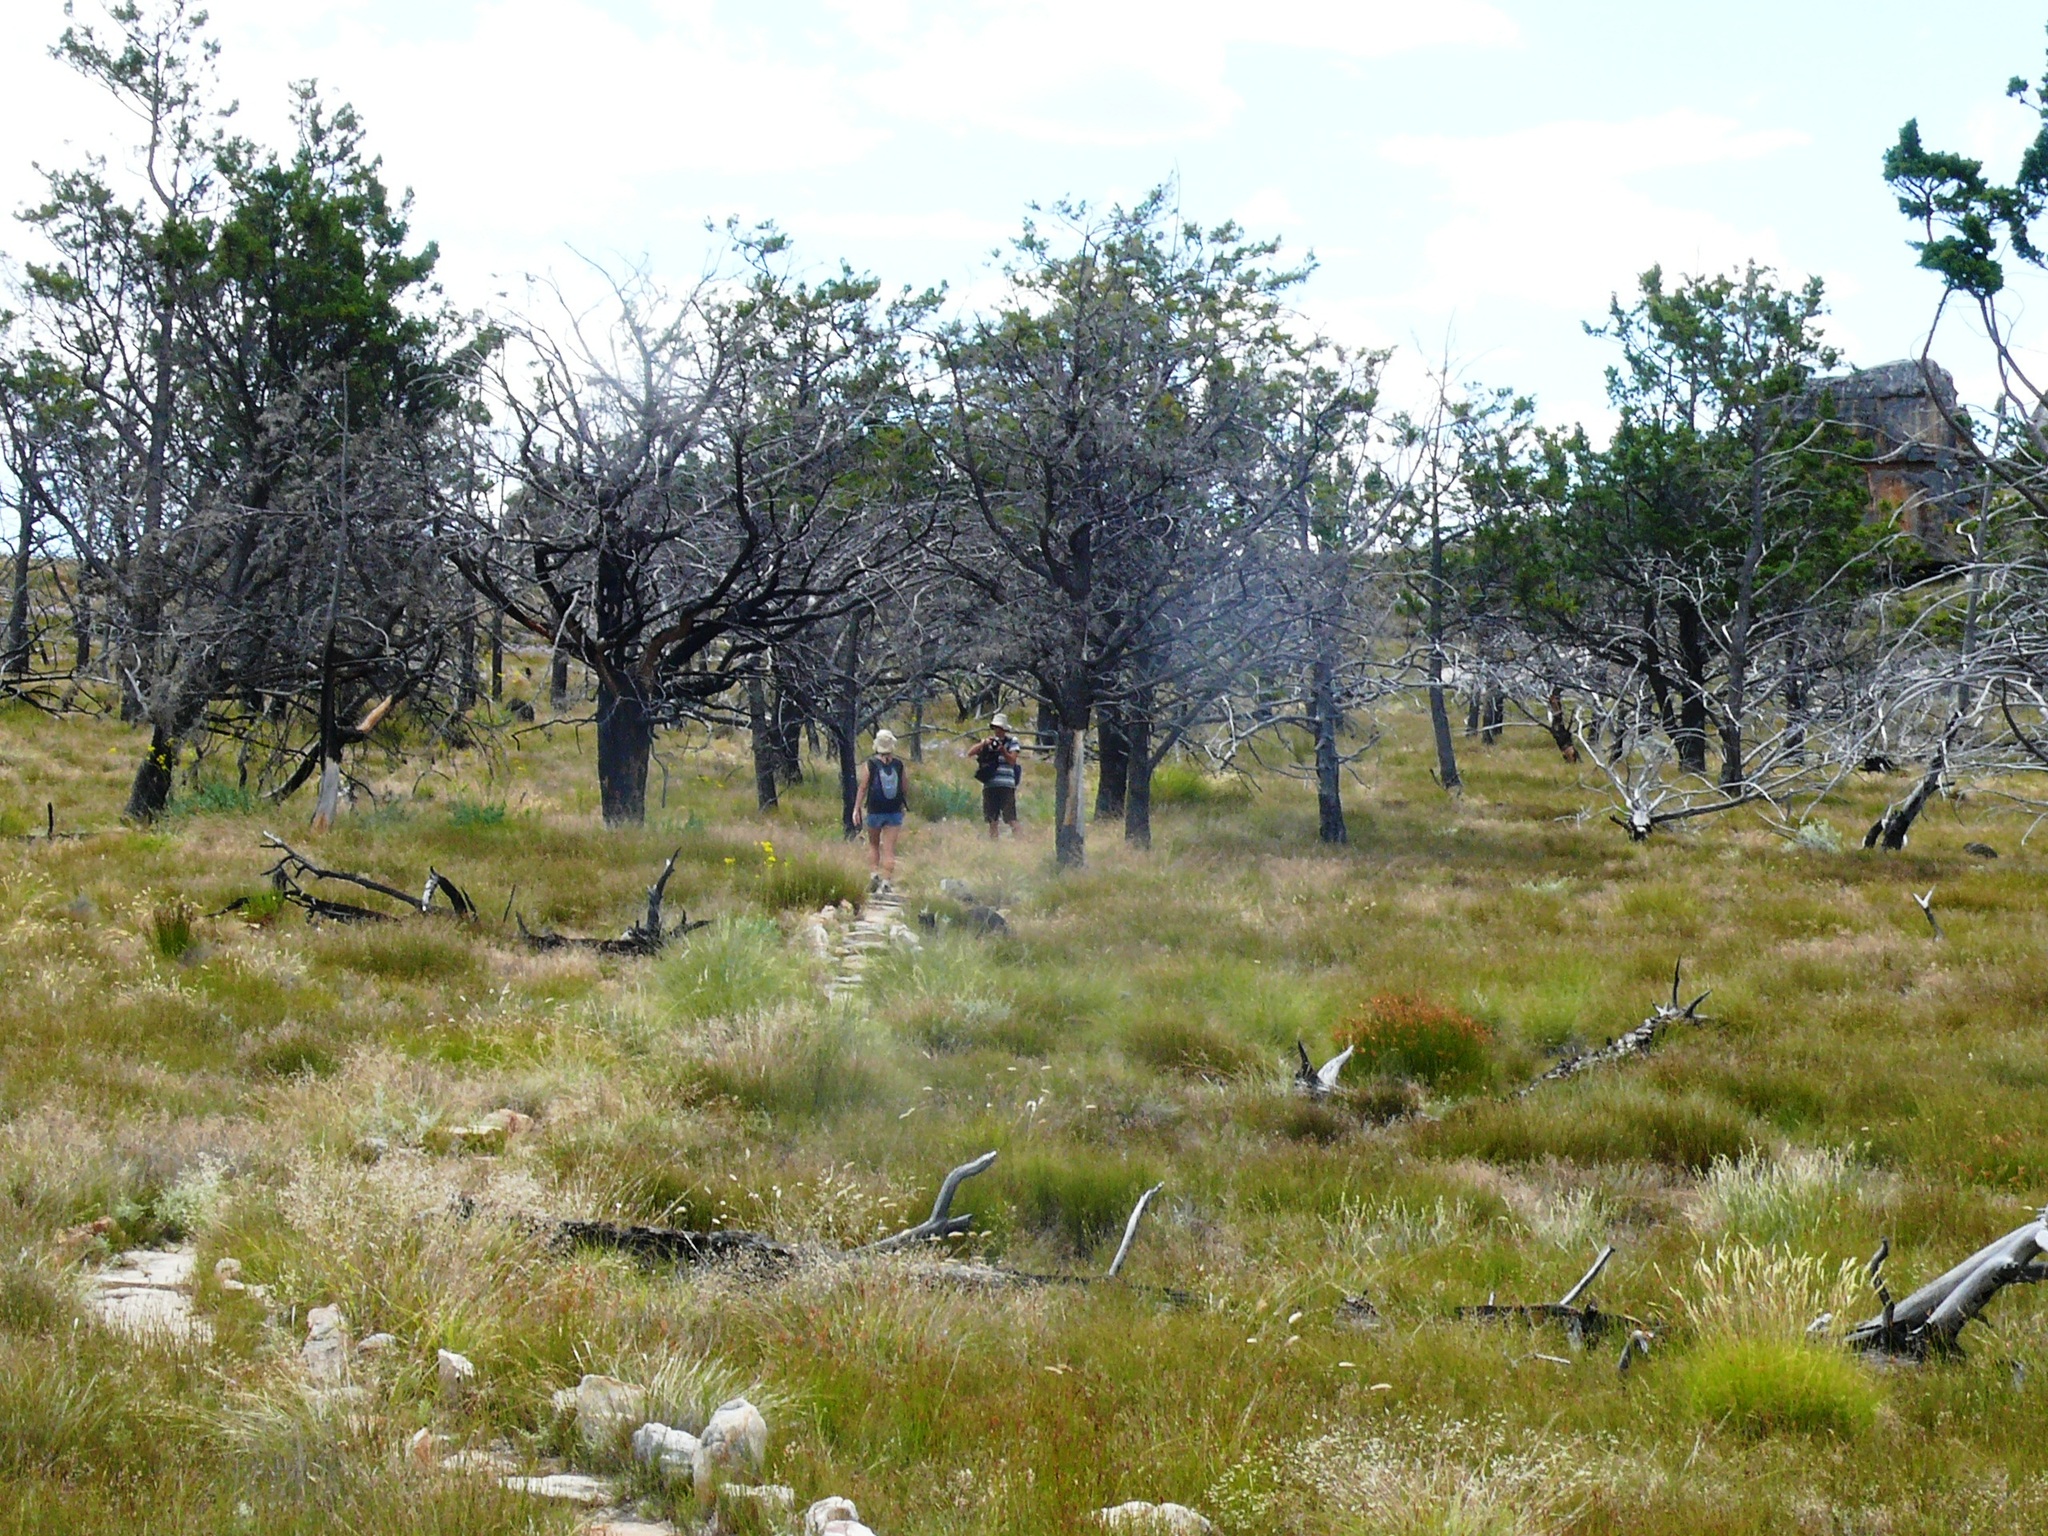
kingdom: Plantae
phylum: Tracheophyta
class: Pinopsida
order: Pinales
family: Cupressaceae
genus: Widdringtonia
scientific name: Widdringtonia nodiflora
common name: Cape cypress
